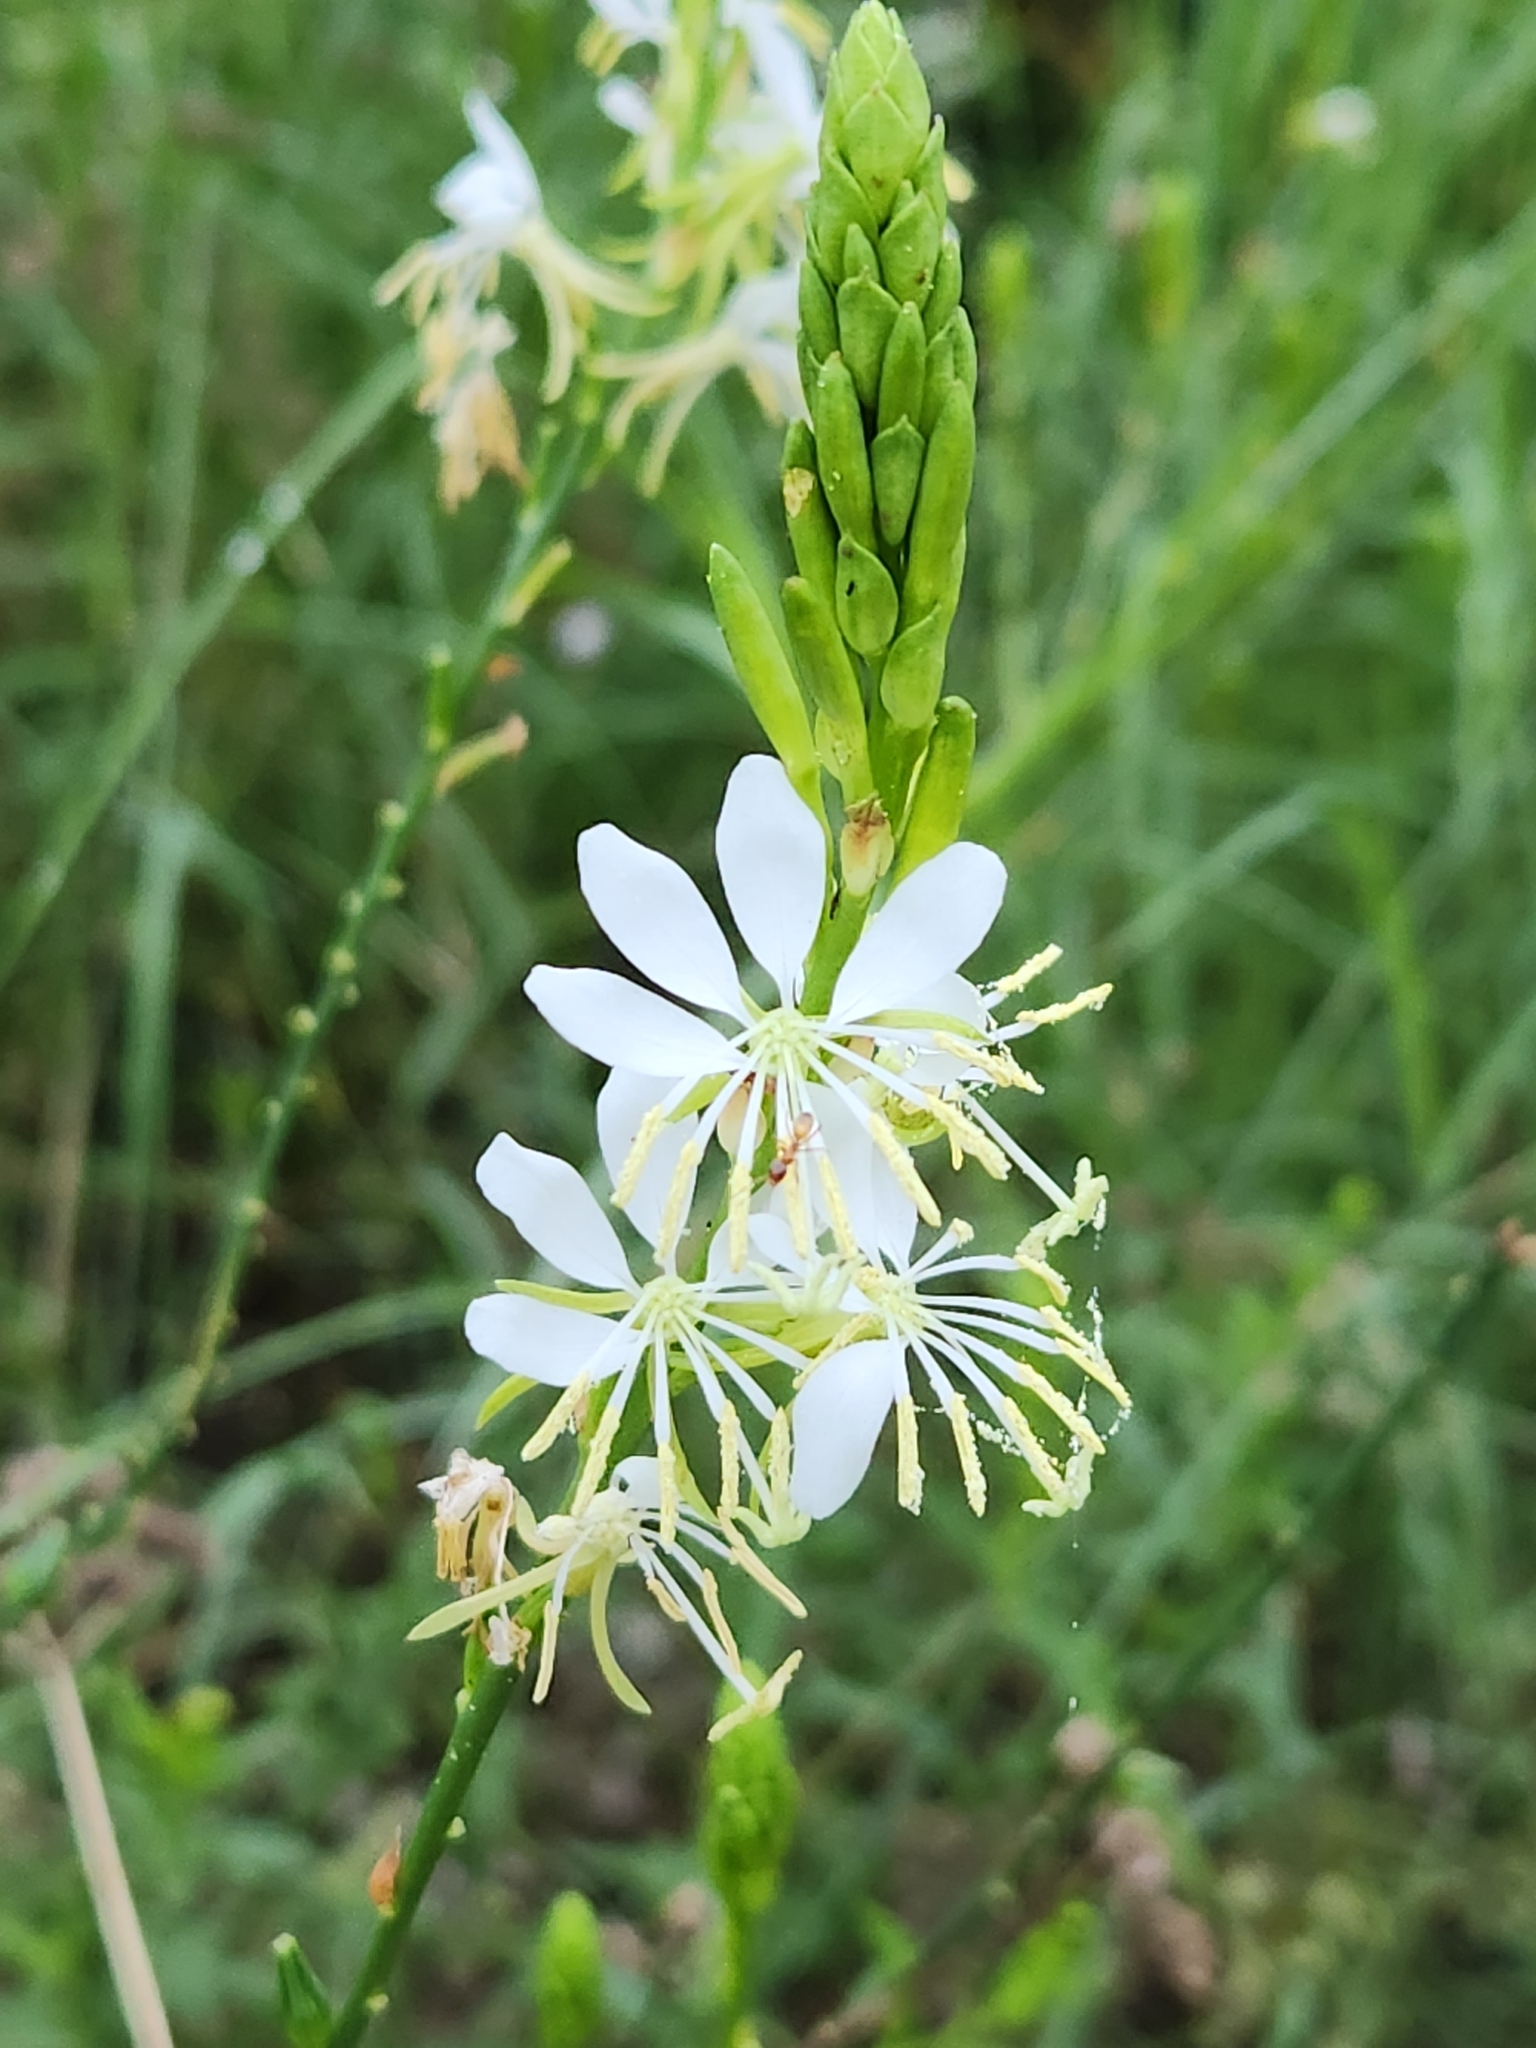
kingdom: Plantae
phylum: Tracheophyta
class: Magnoliopsida
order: Myrtales
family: Onagraceae
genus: Oenothera
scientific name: Oenothera suffulta
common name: Kisses
